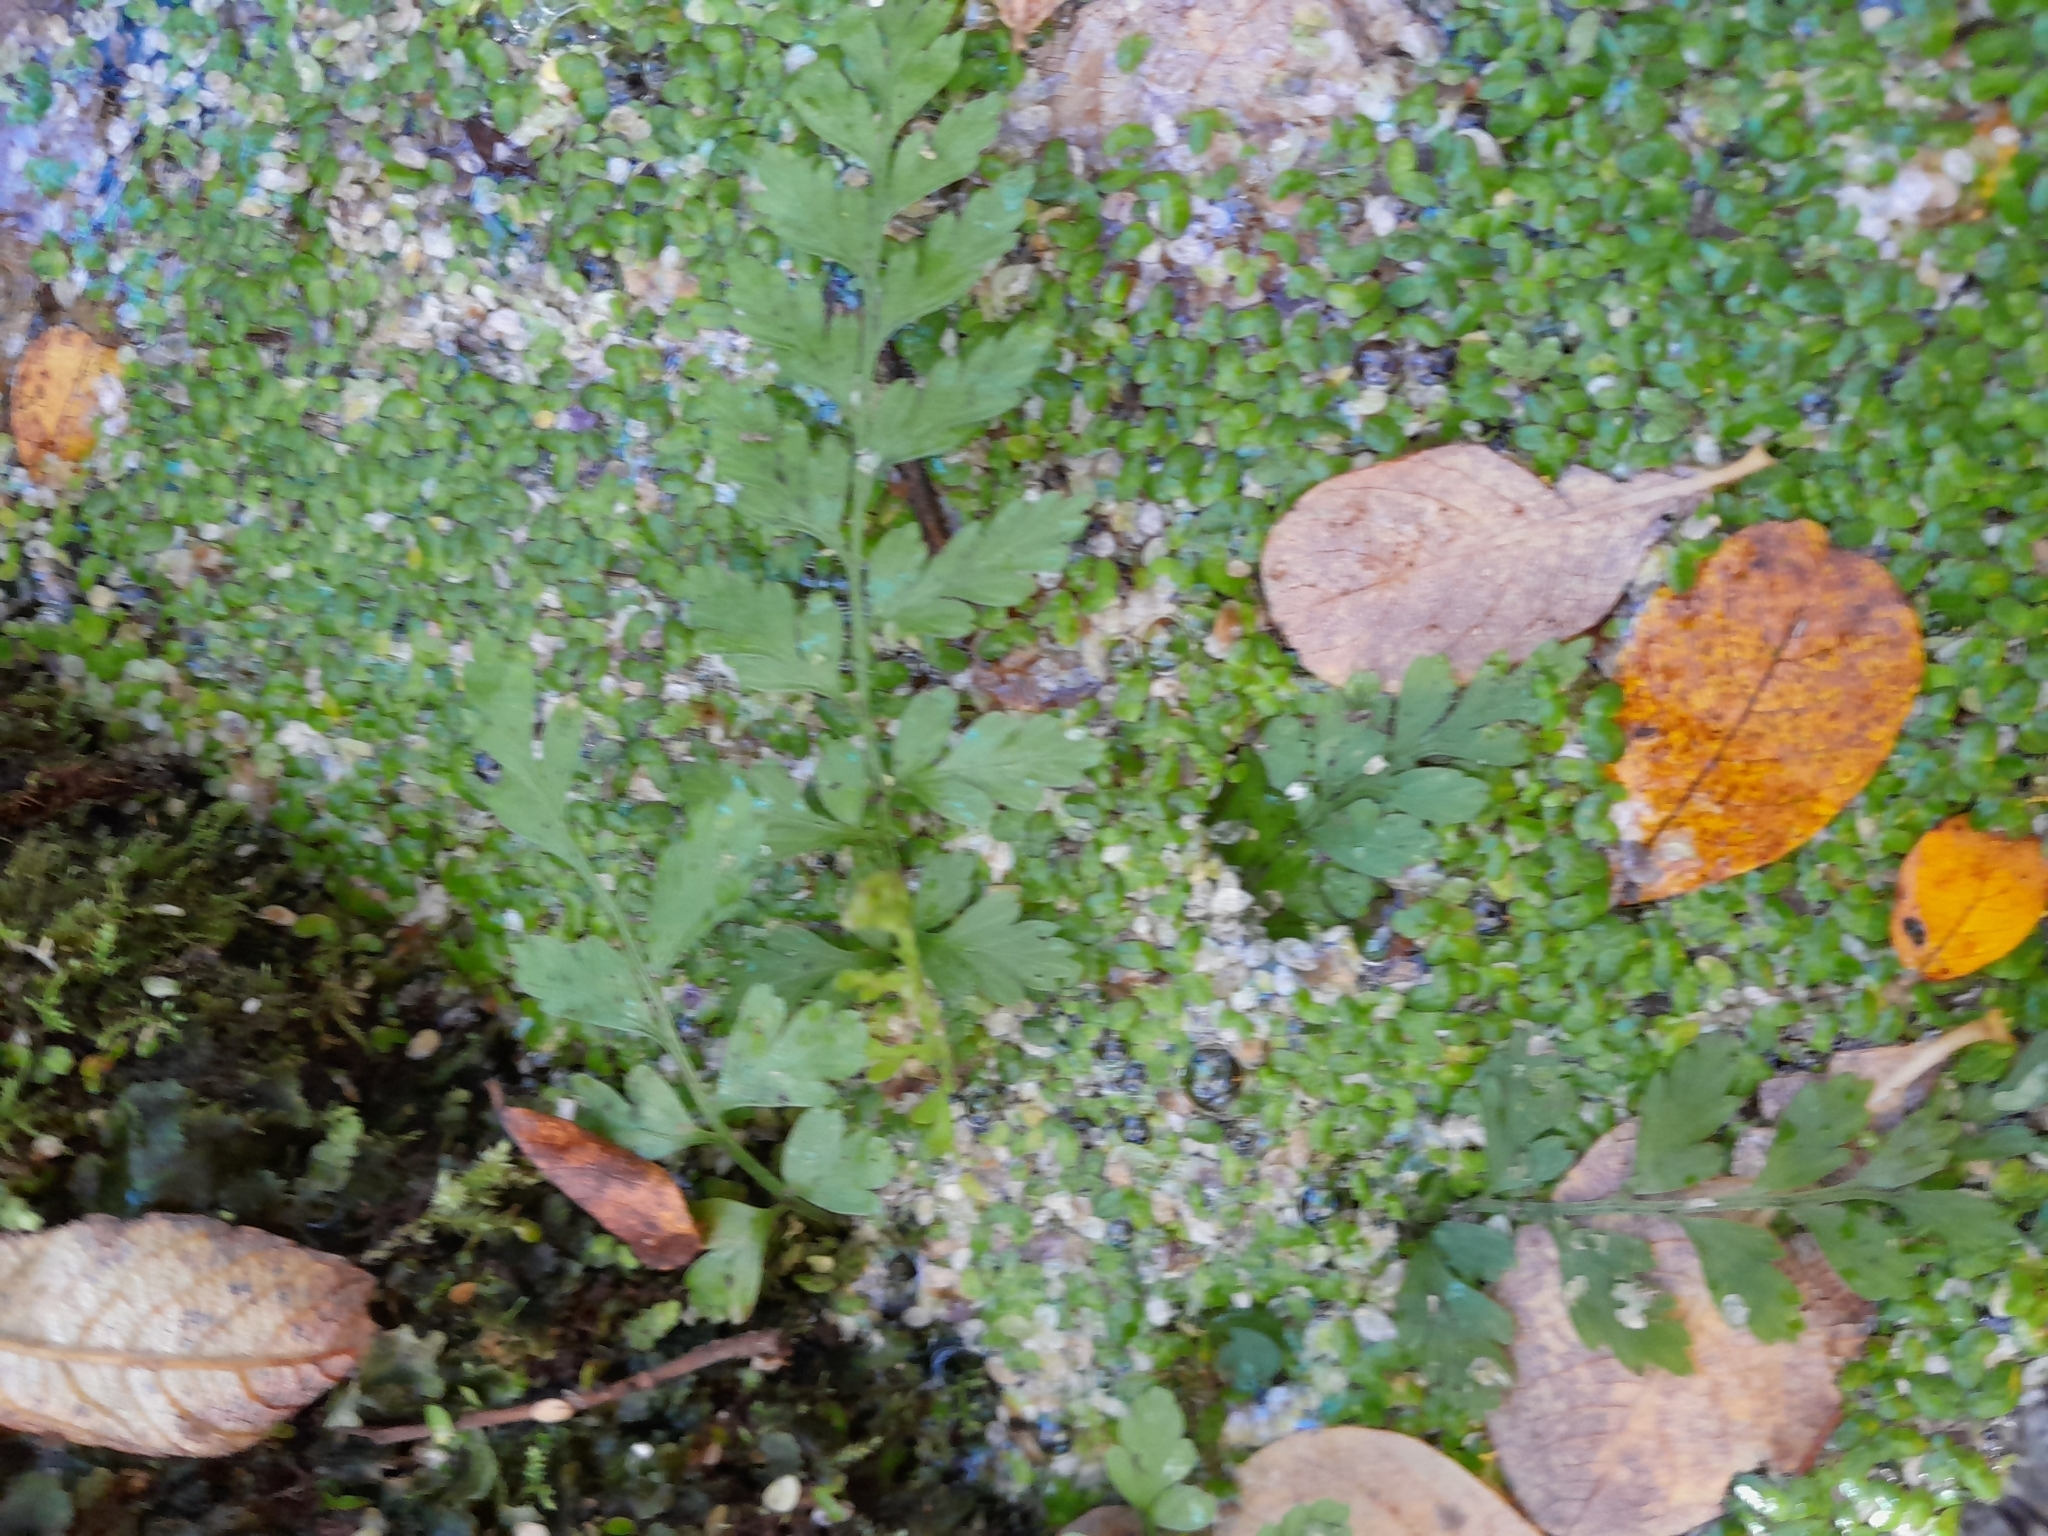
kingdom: Plantae
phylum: Tracheophyta
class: Polypodiopsida
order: Polypodiales
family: Aspleniaceae
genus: Asplenium
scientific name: Asplenium
